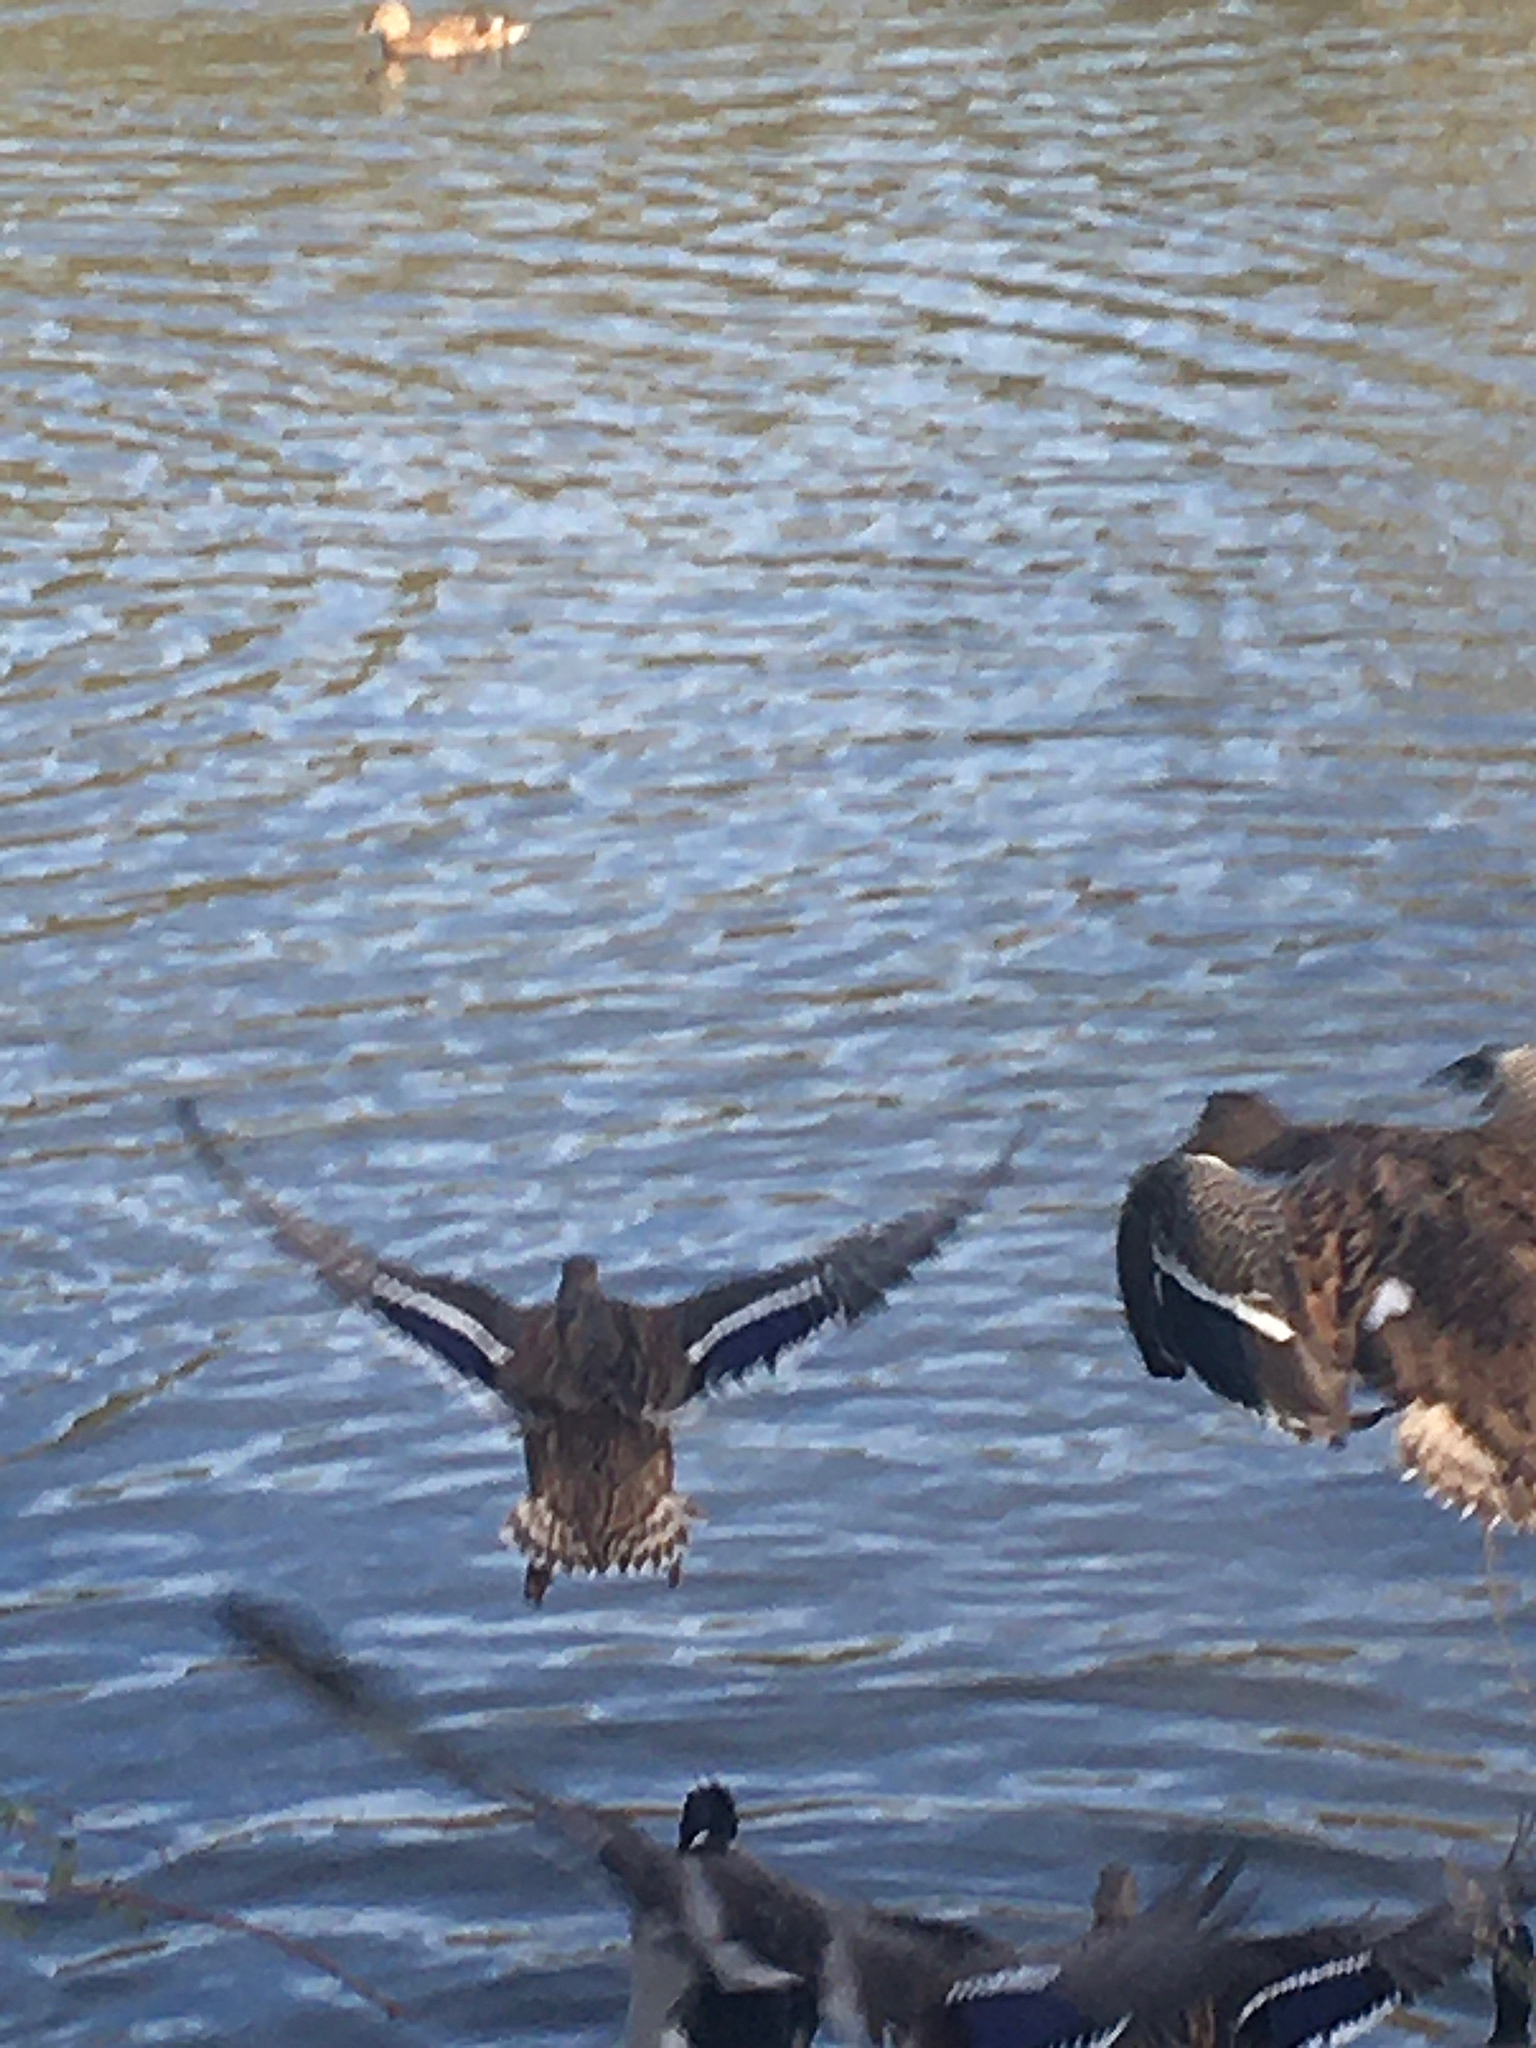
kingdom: Animalia
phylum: Chordata
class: Aves
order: Anseriformes
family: Anatidae
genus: Anas
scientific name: Anas platyrhynchos
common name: Mallard
